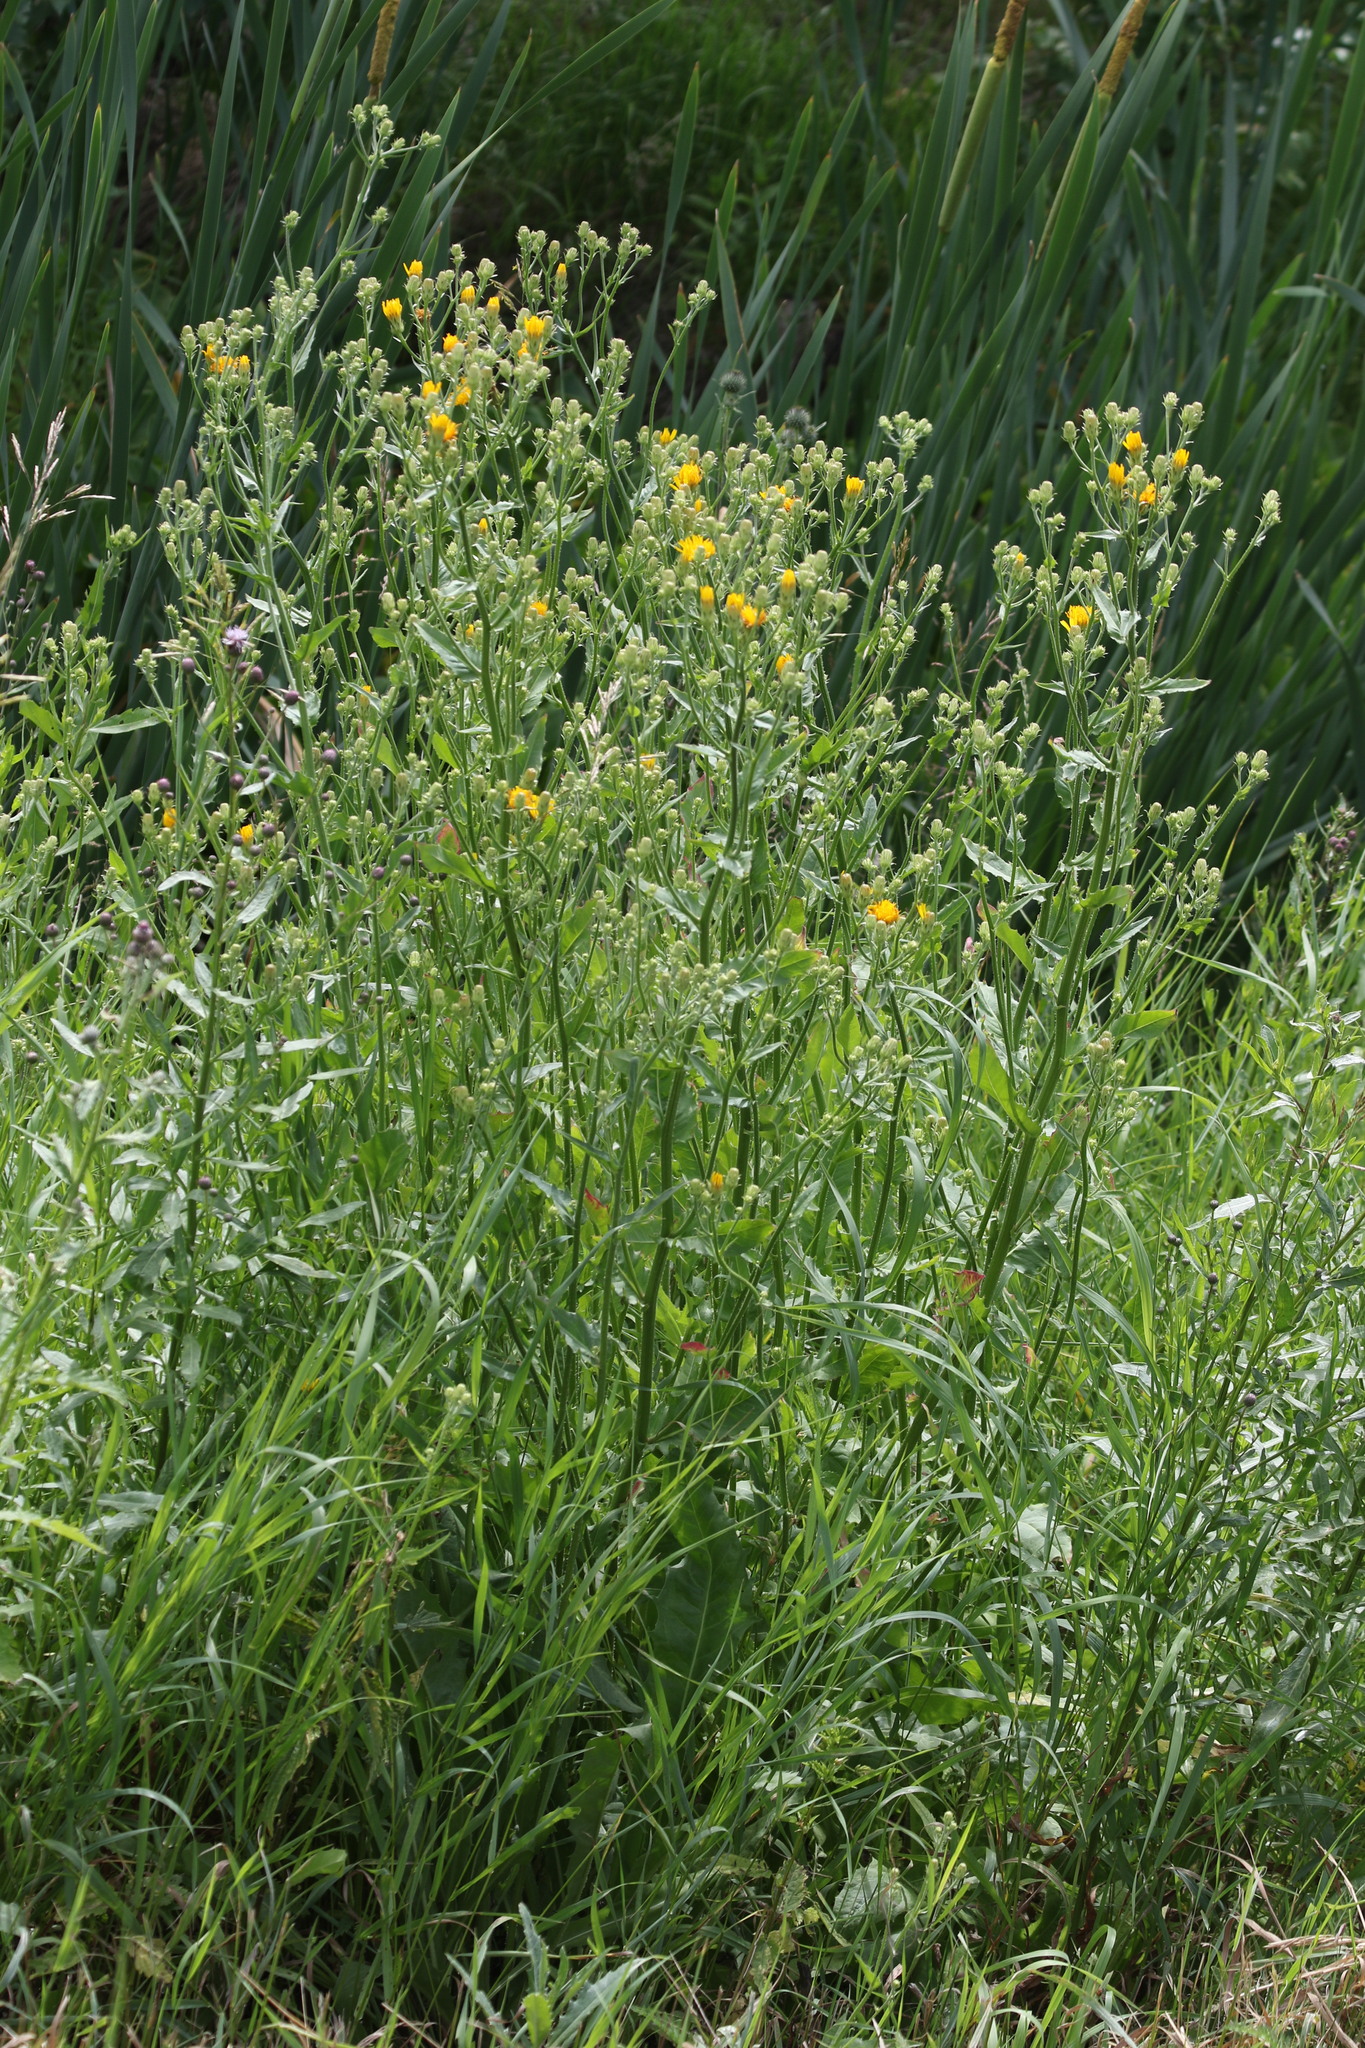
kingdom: Plantae
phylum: Tracheophyta
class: Magnoliopsida
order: Asterales
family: Asteraceae
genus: Picris
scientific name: Picris hieracioides
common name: Hawkweed oxtongue
